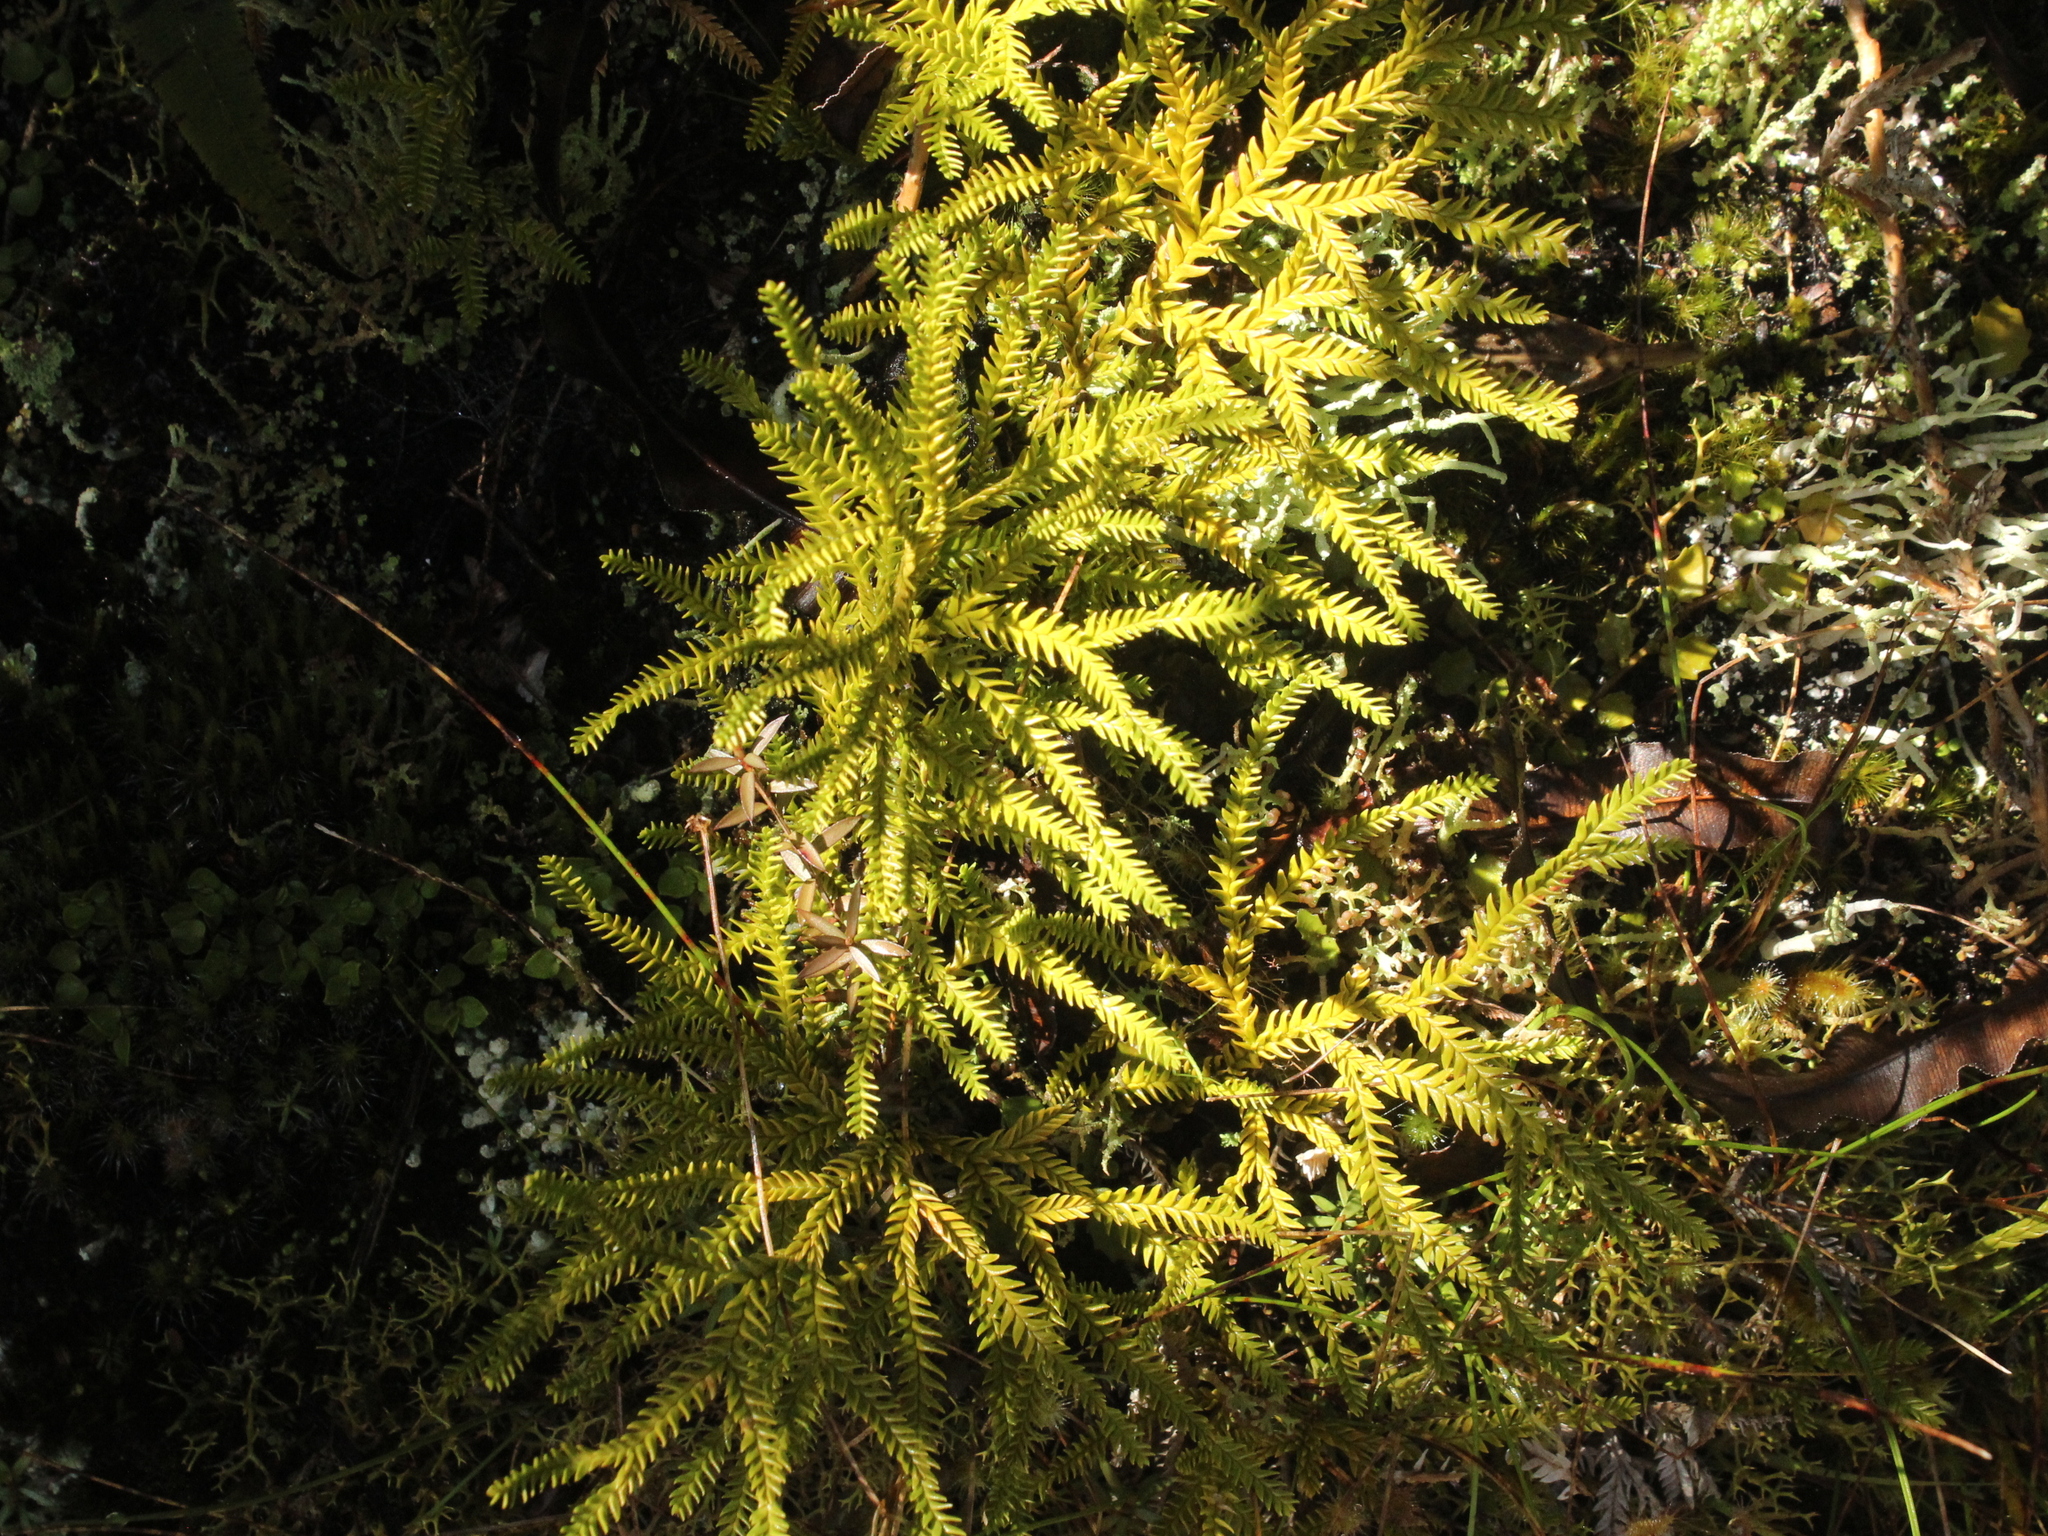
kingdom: Plantae
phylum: Tracheophyta
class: Lycopodiopsida
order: Lycopodiales
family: Lycopodiaceae
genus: Diphasium
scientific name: Diphasium scariosum
